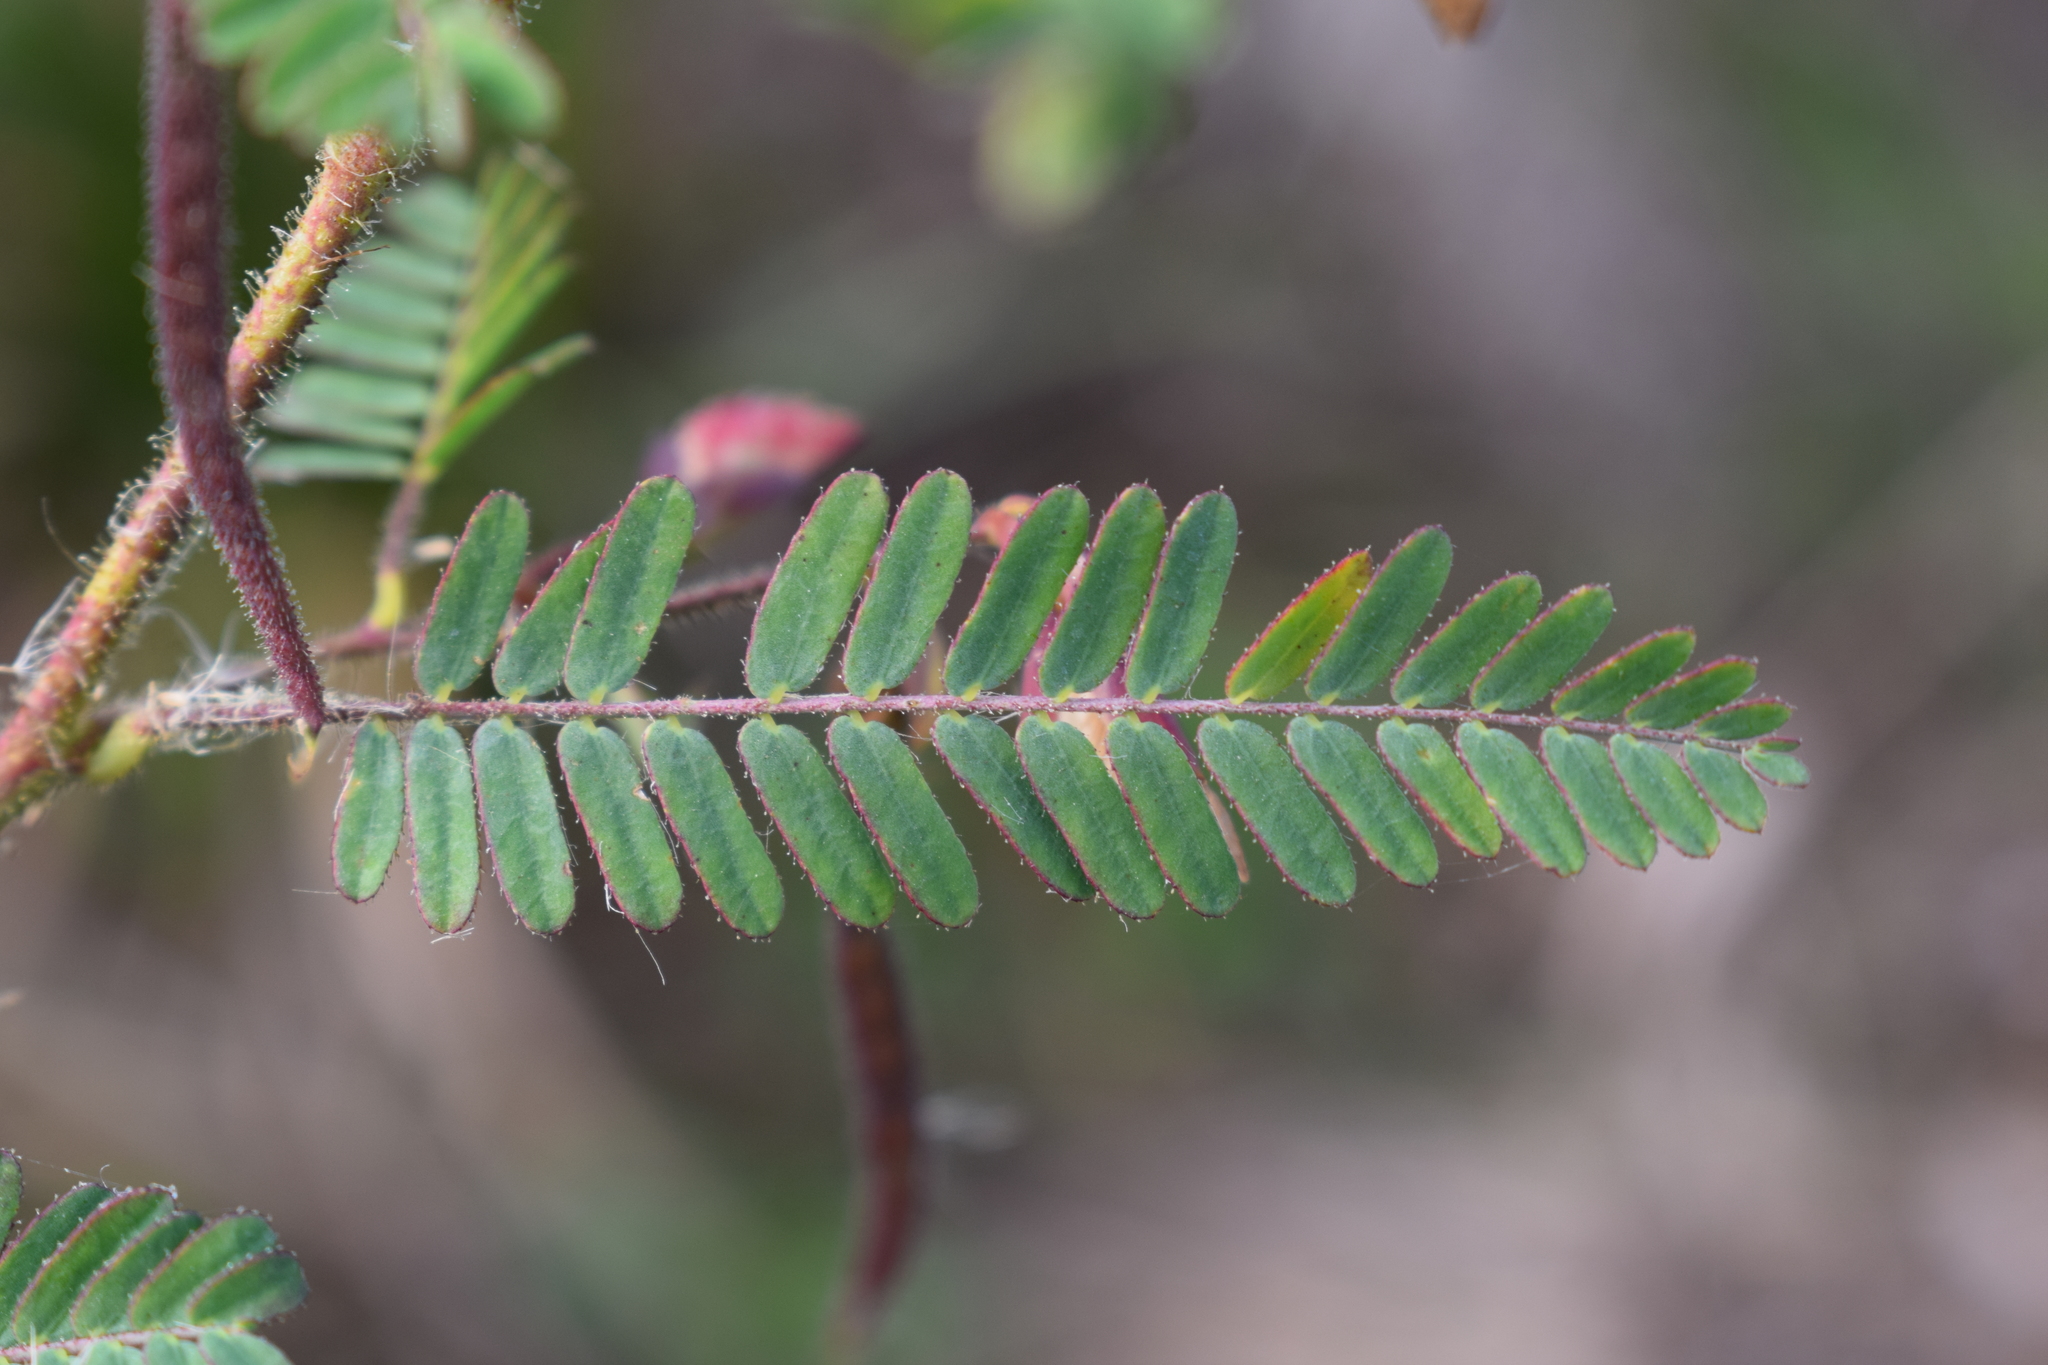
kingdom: Plantae
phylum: Tracheophyta
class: Magnoliopsida
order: Fabales
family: Fabaceae
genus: Aeschynomene
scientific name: Aeschynomene denticulata
